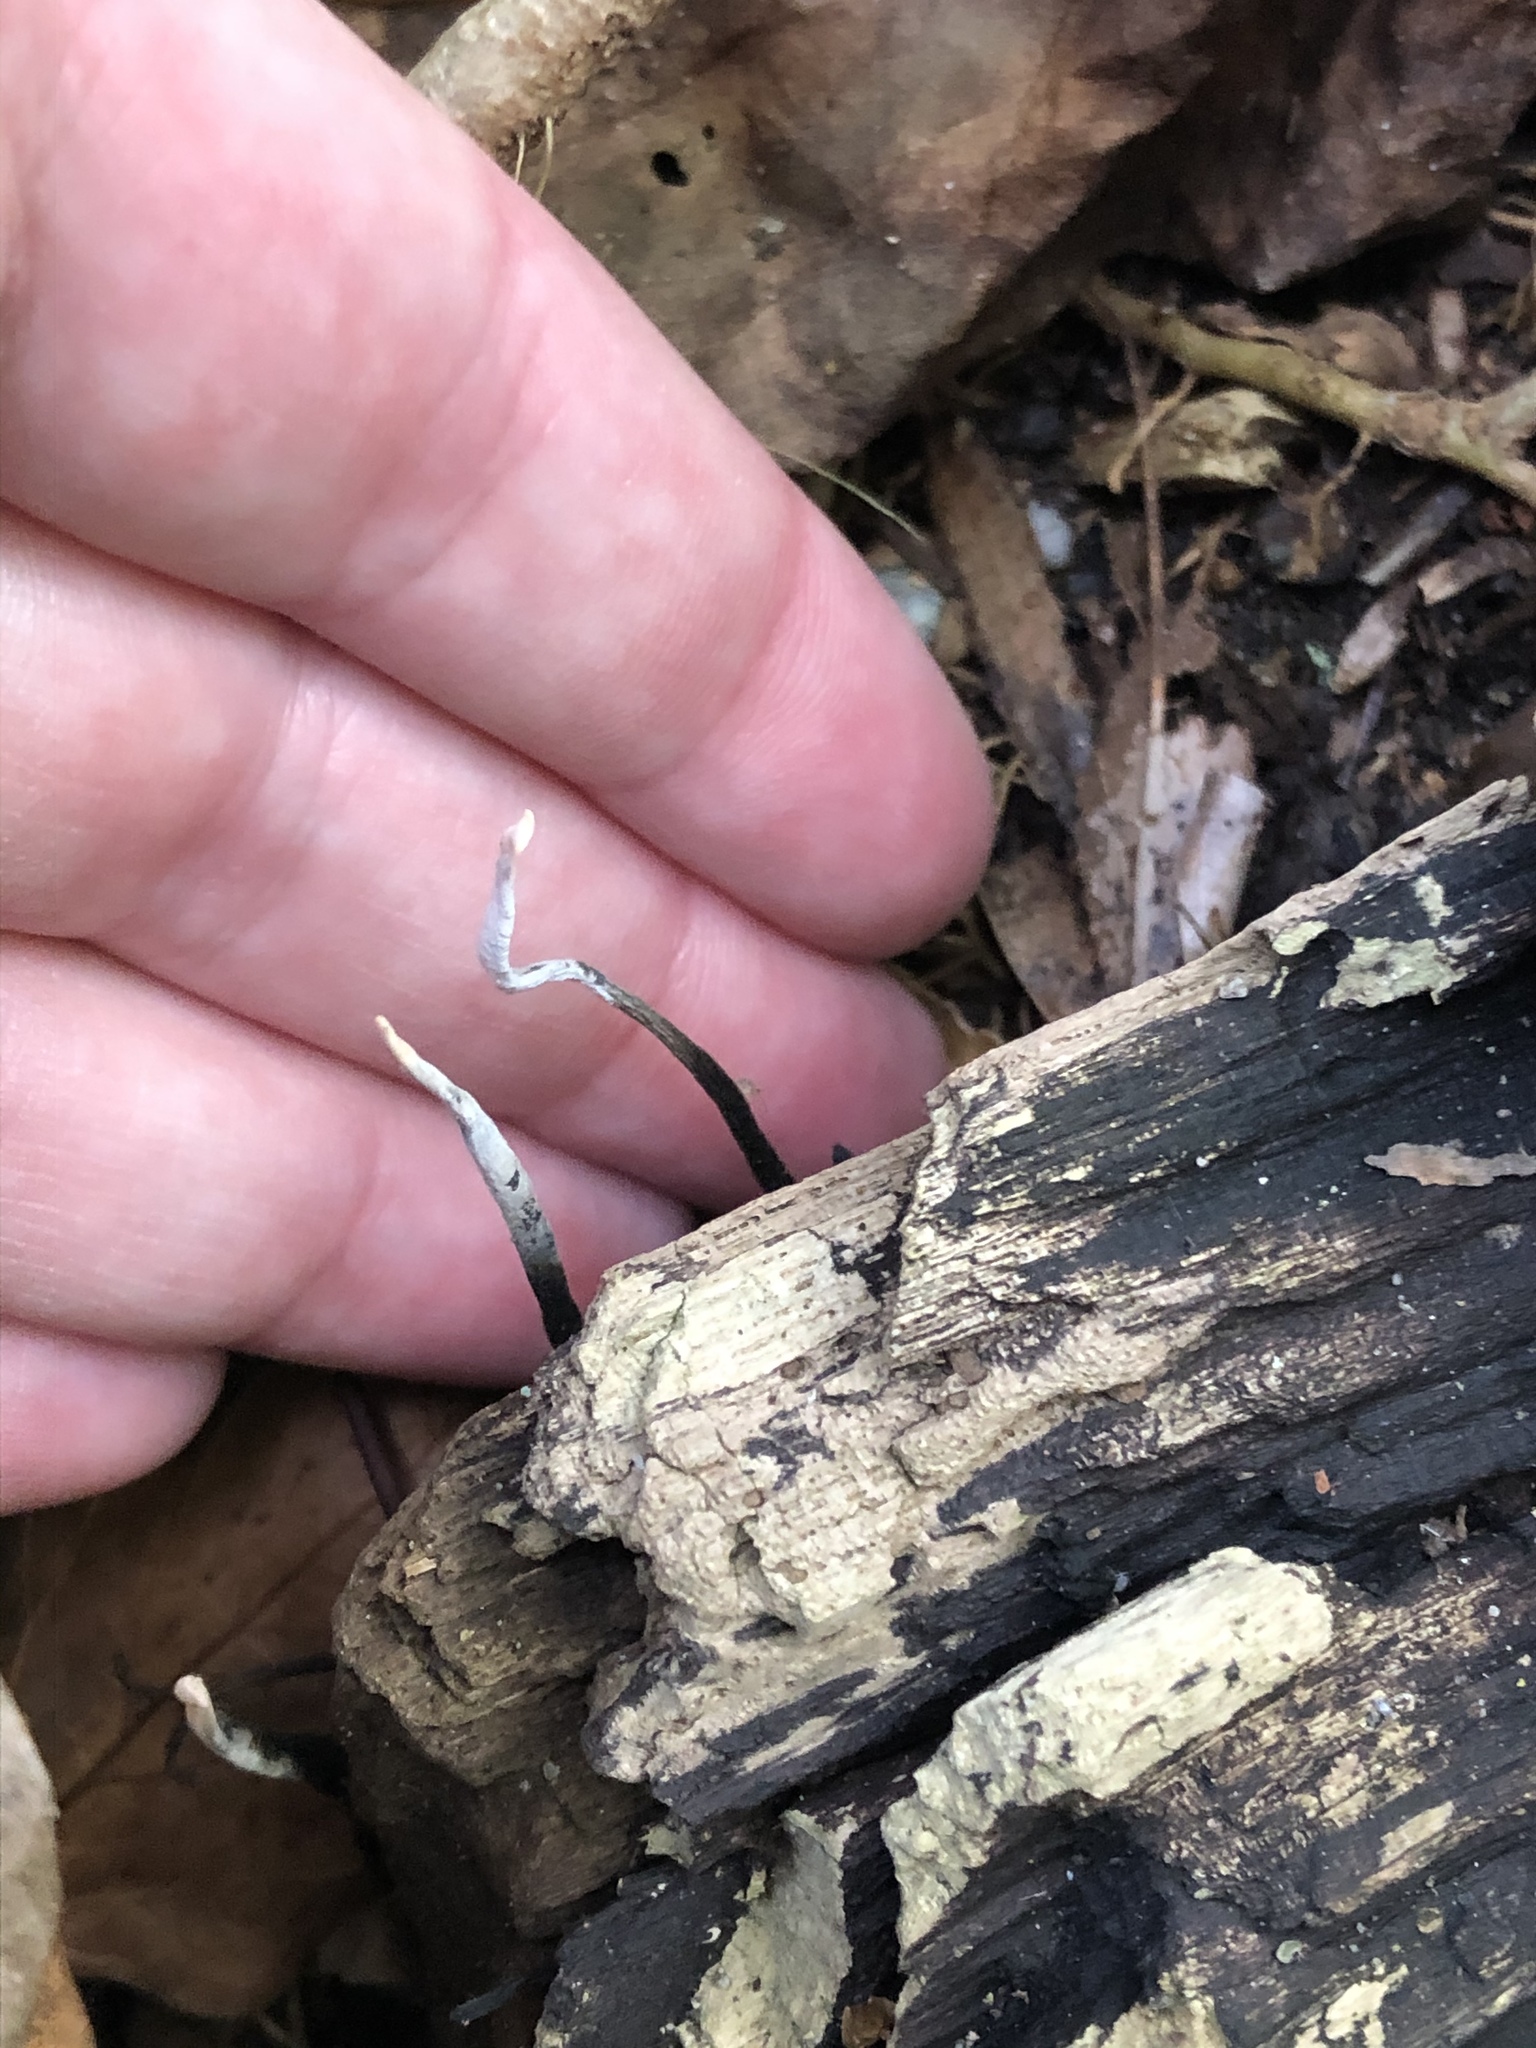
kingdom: Fungi
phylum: Ascomycota
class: Sordariomycetes
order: Xylariales
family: Xylariaceae
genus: Xylaria
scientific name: Xylaria hypoxylon
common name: Candle-snuff fungus
